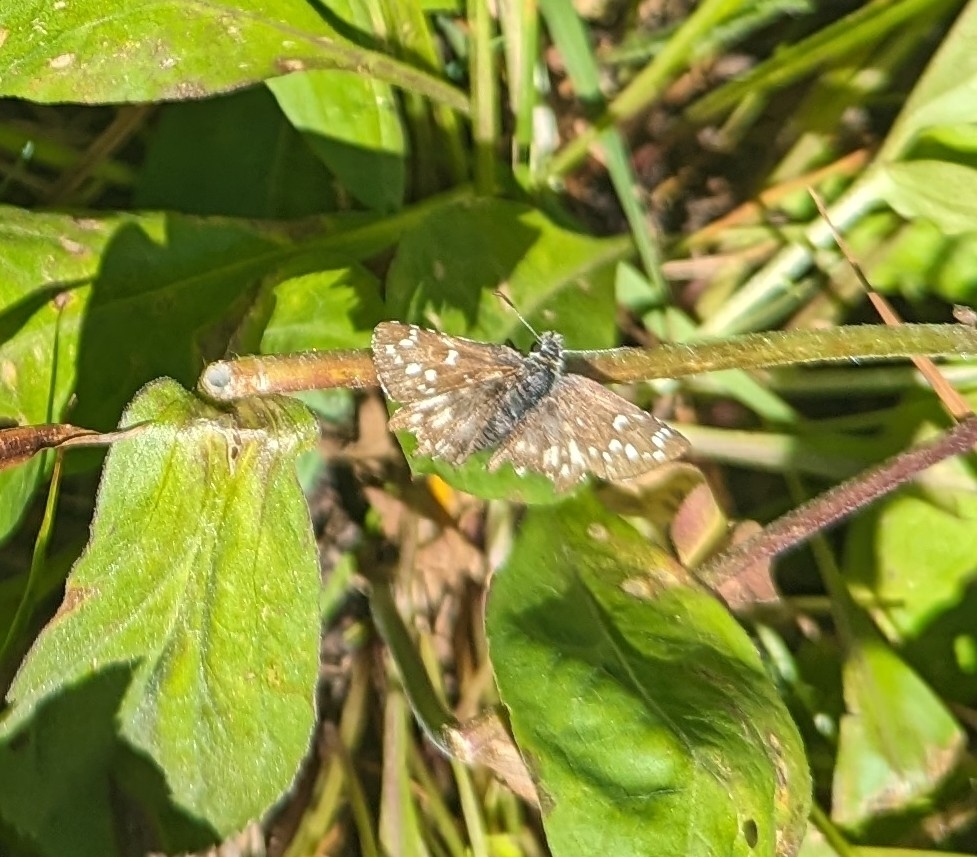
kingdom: Animalia
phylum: Arthropoda
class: Insecta
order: Lepidoptera
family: Hesperiidae
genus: Pyrgus
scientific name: Pyrgus centaureae
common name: Northern grizzled skipper
